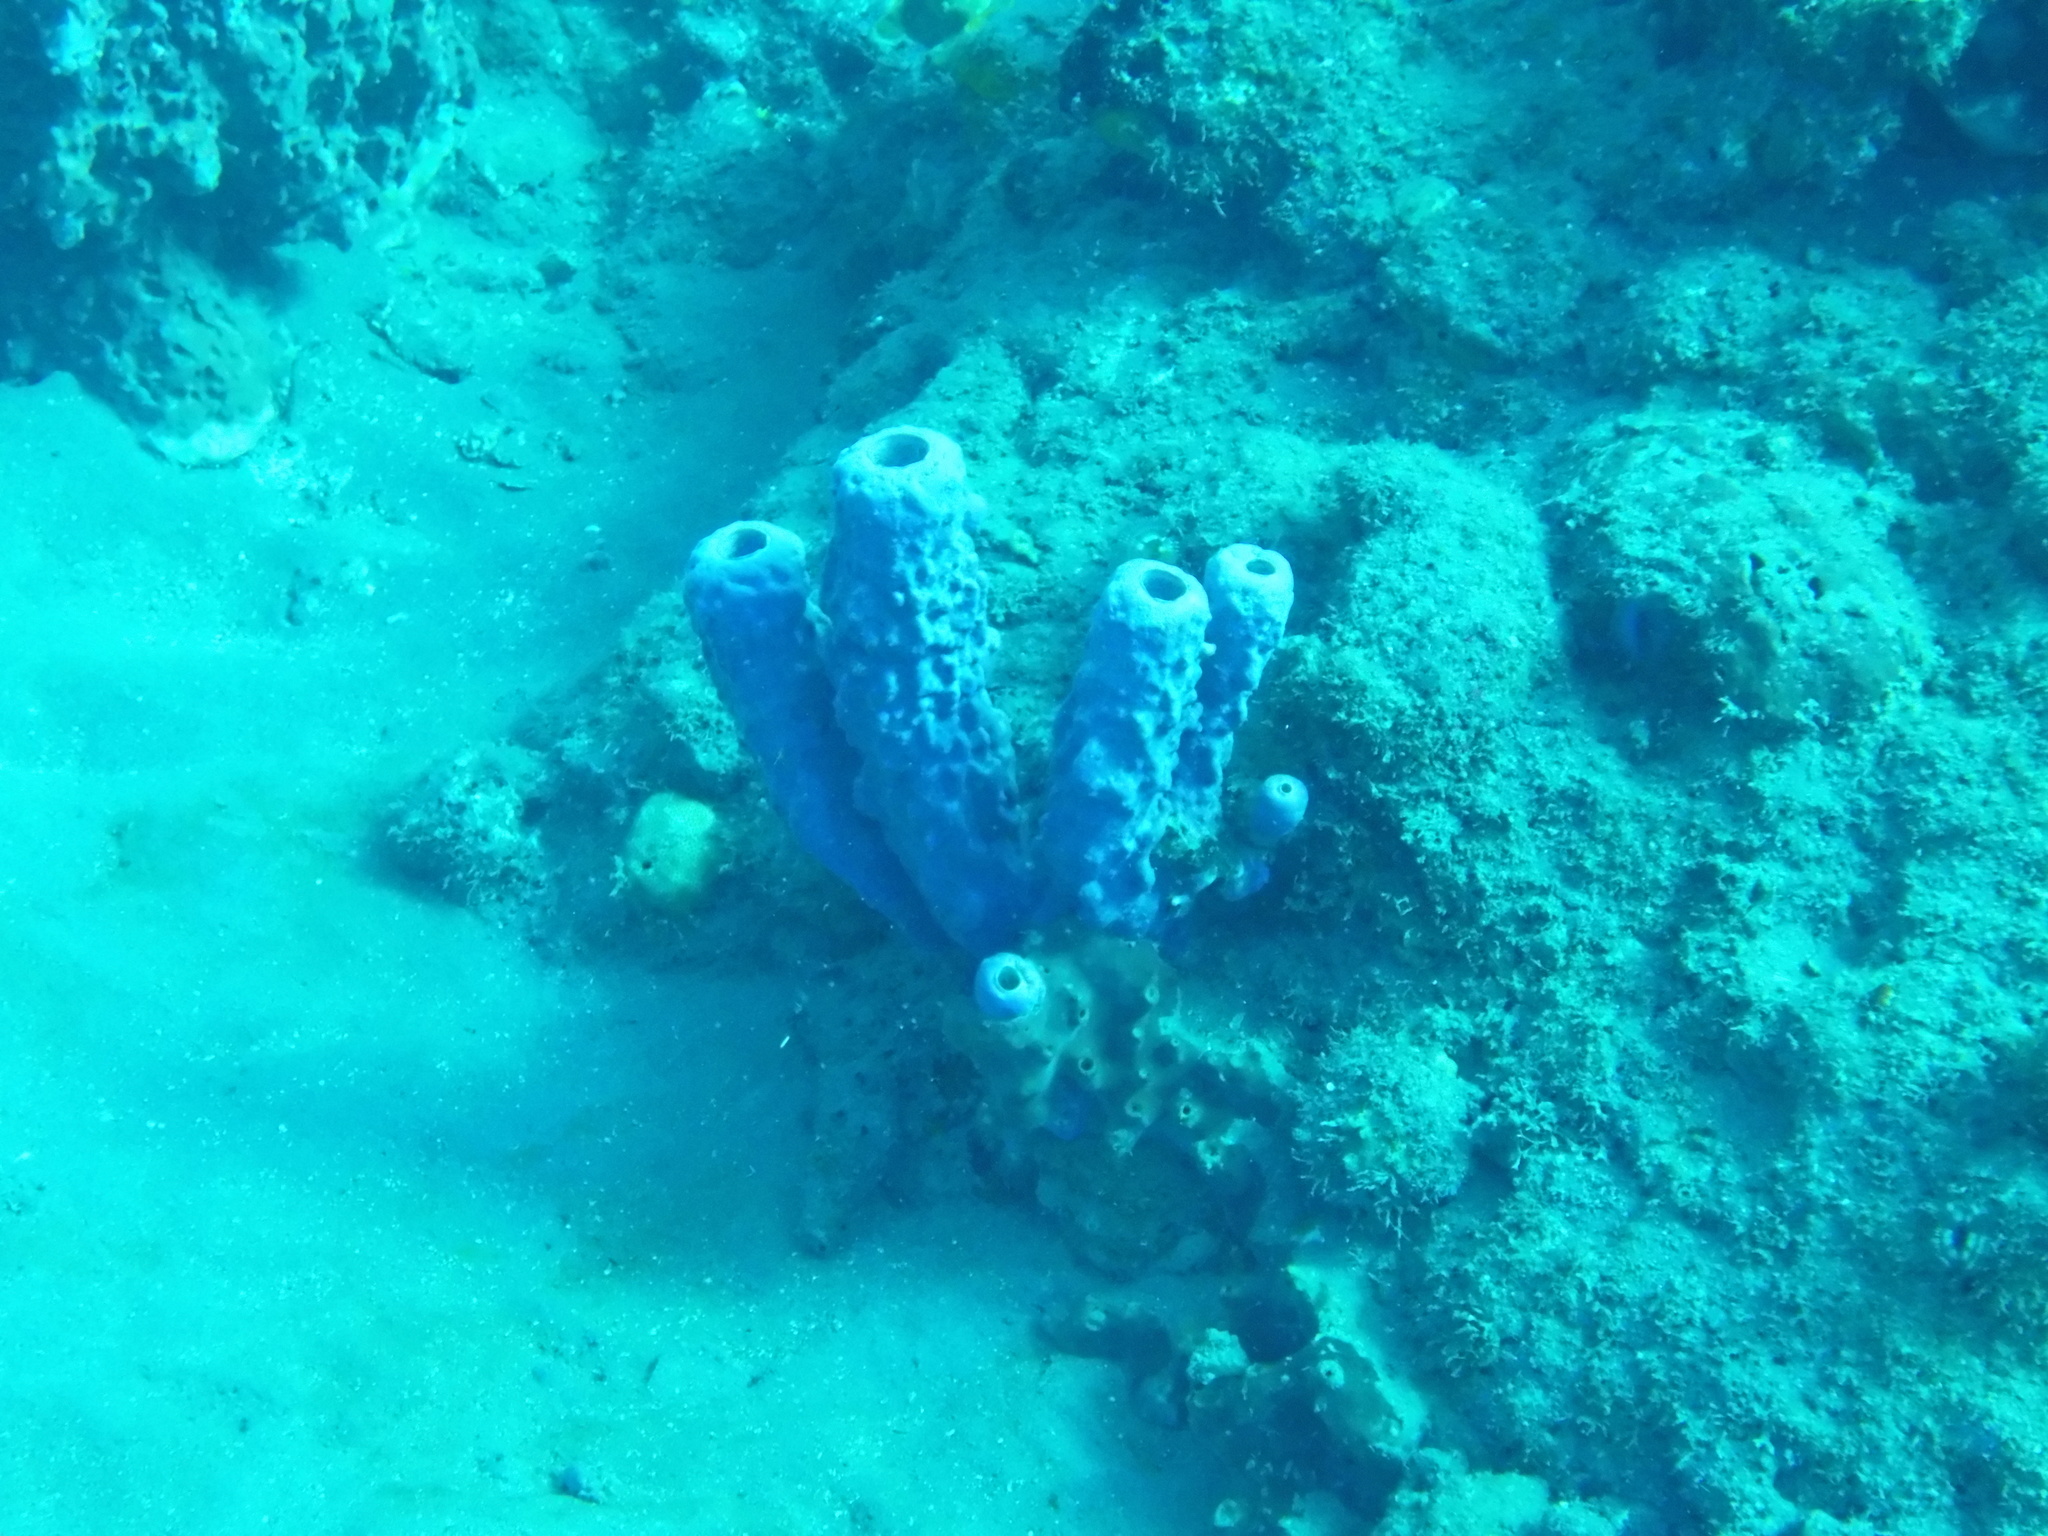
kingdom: Animalia
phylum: Porifera
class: Demospongiae
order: Verongiida
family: Aplysinidae
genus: Aplysina
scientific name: Aplysina archeri
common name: Stove-pipe sponge
